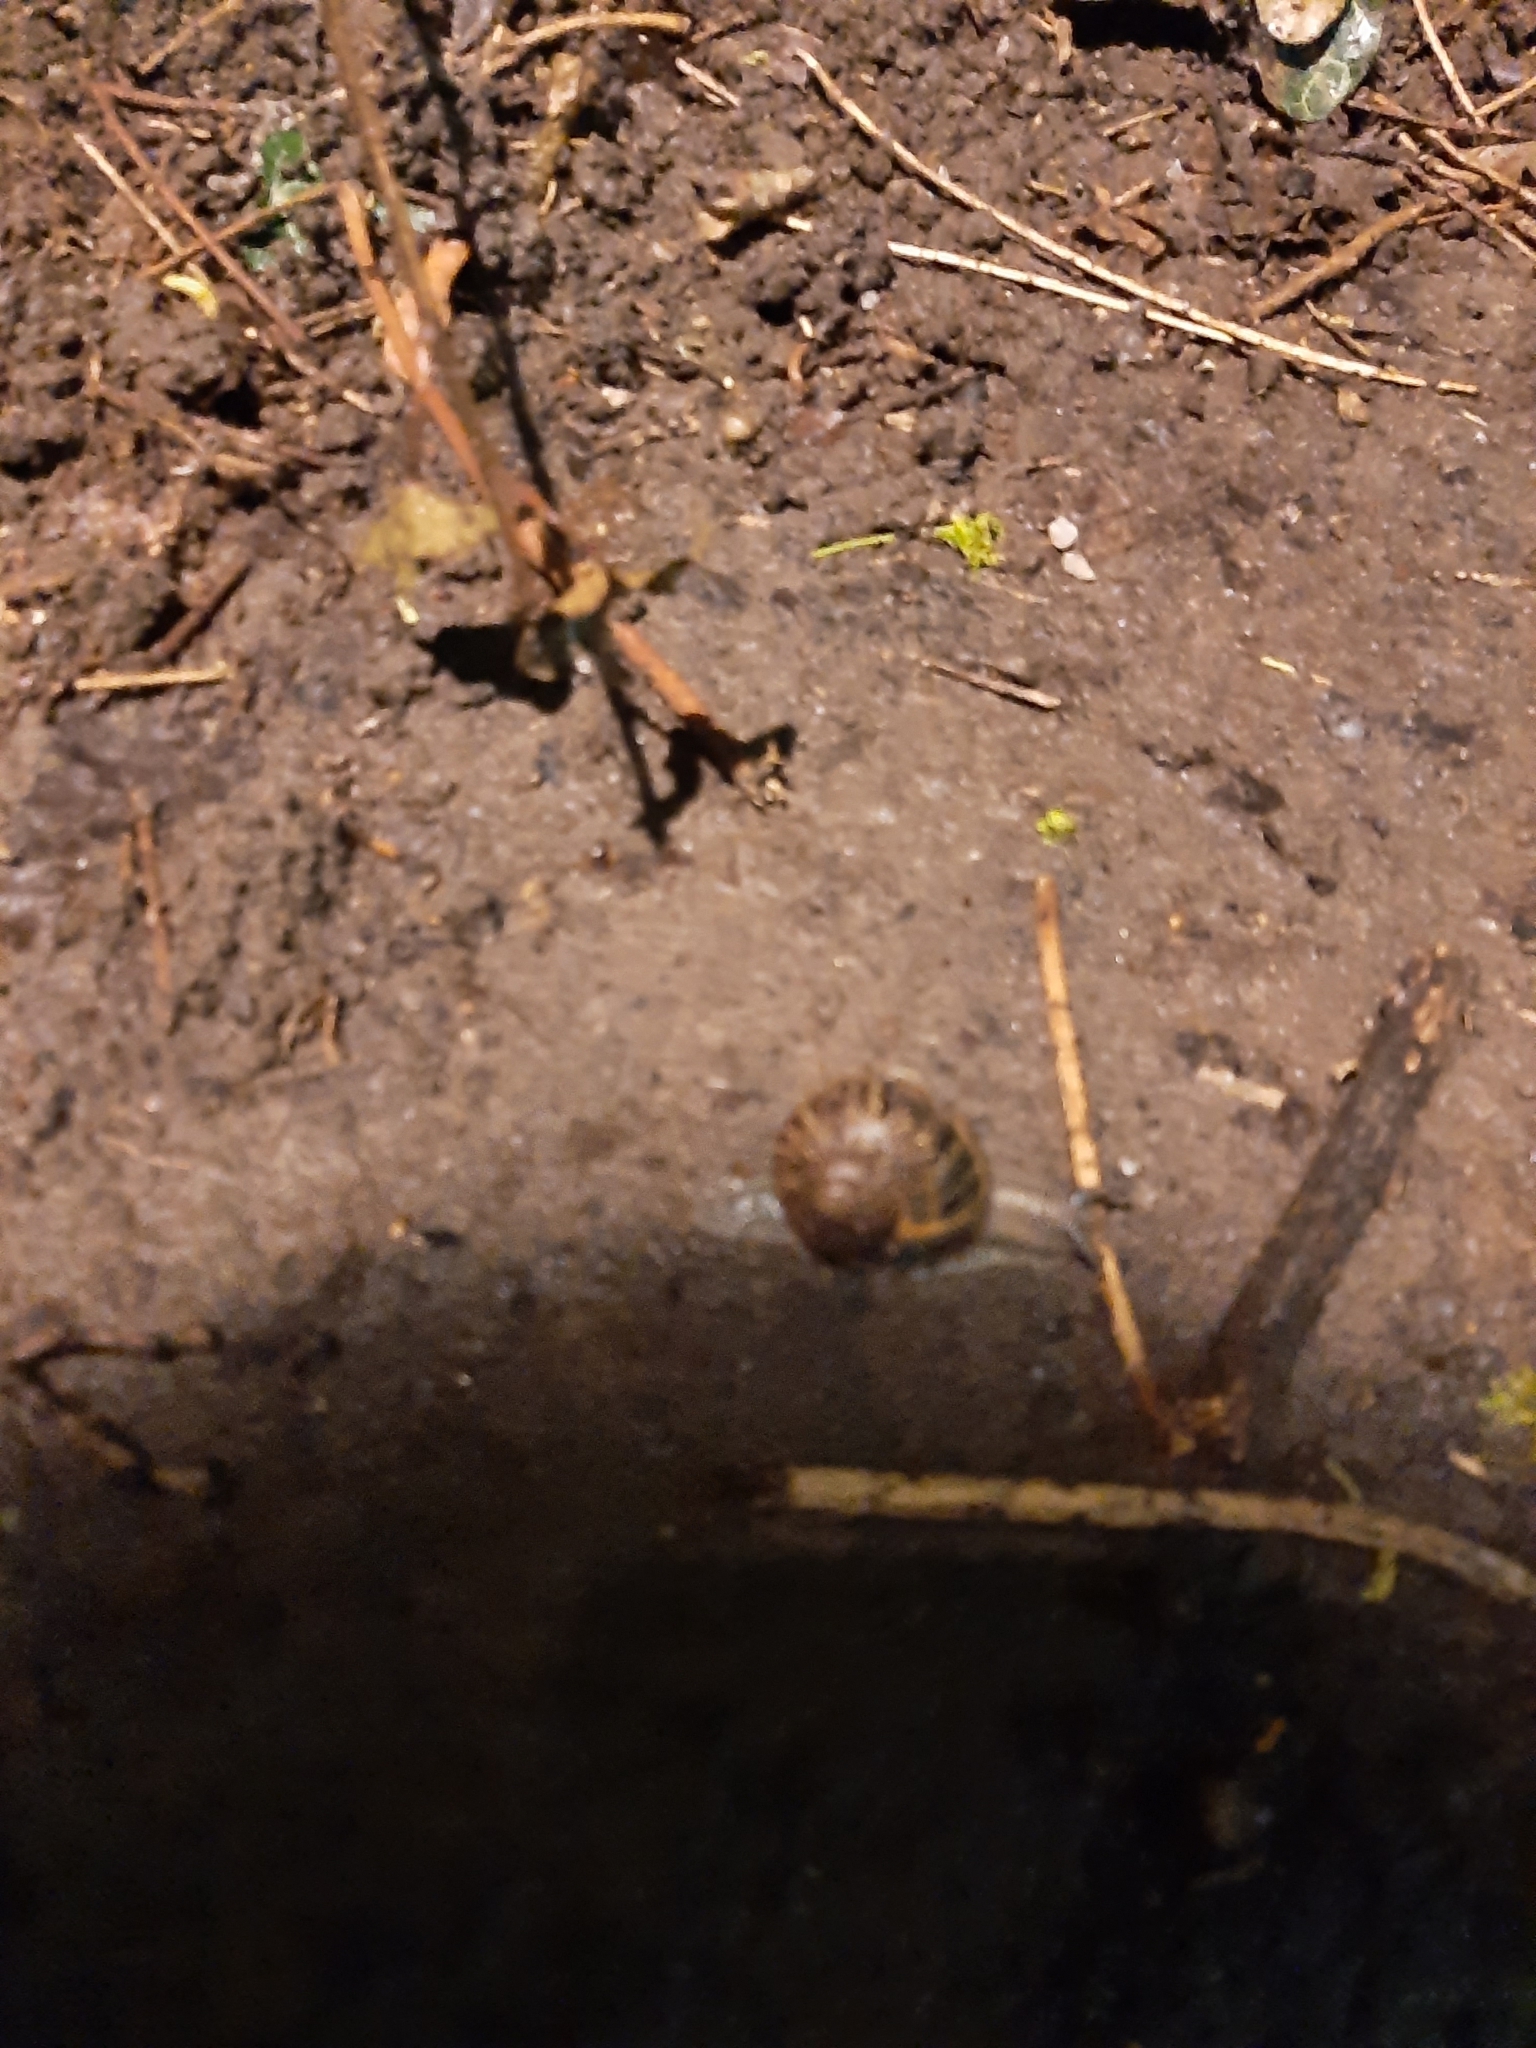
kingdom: Animalia
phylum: Mollusca
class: Gastropoda
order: Stylommatophora
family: Helicidae
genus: Cornu
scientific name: Cornu aspersum
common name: Brown garden snail
